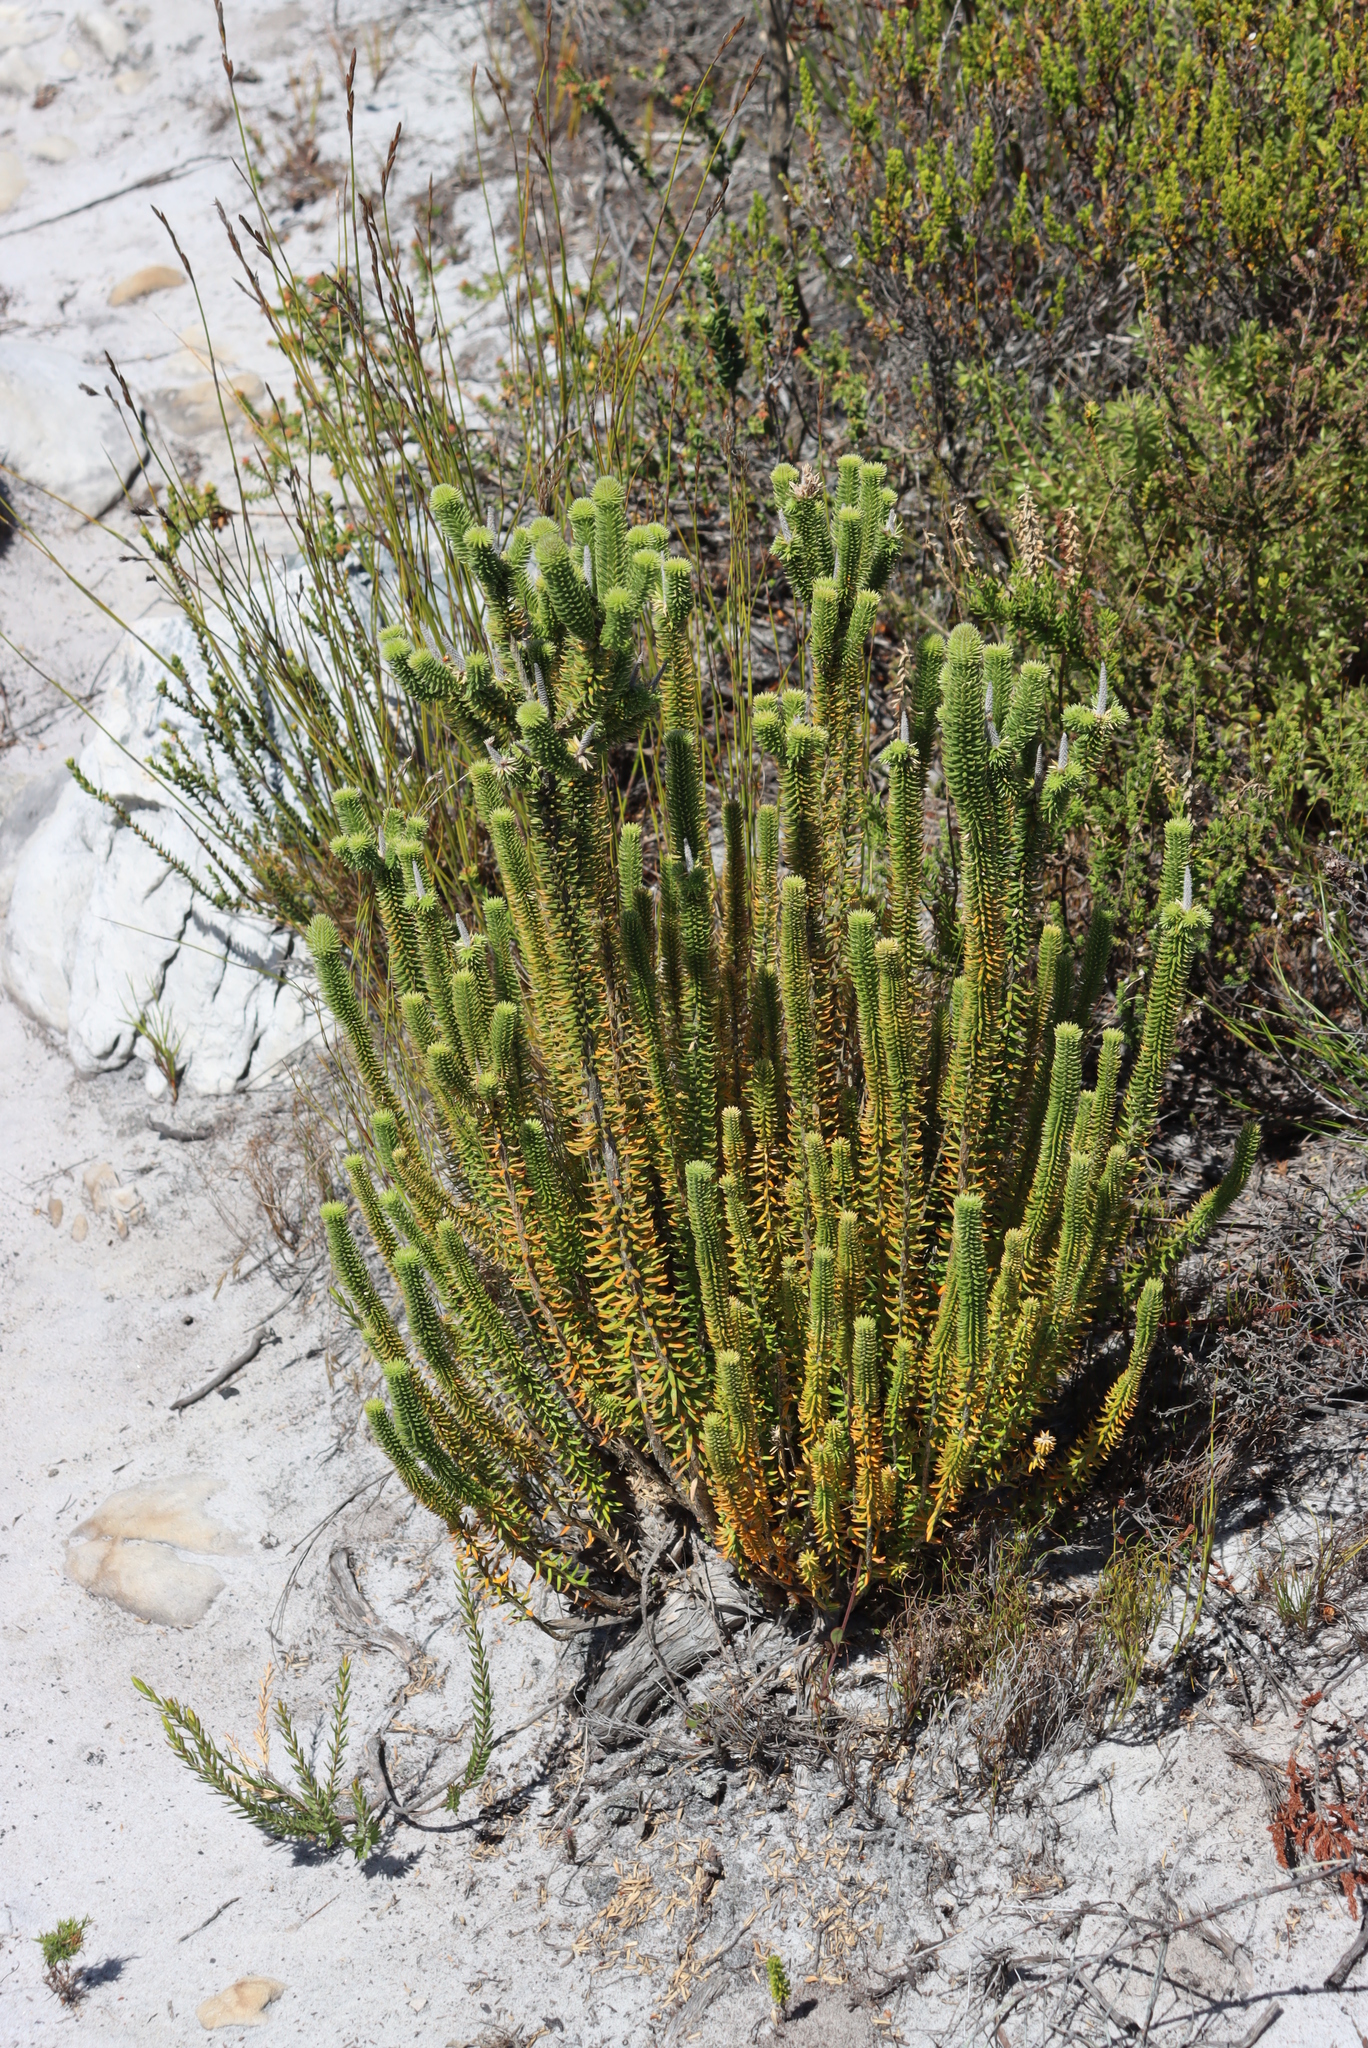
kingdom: Plantae
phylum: Tracheophyta
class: Magnoliopsida
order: Lamiales
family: Stilbaceae
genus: Stilbe
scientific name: Stilbe vestita
